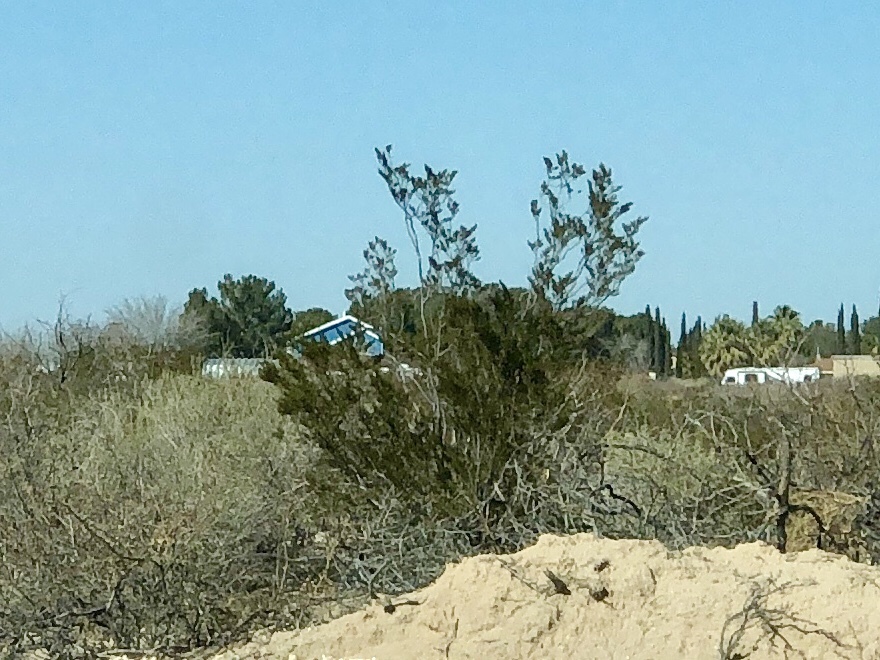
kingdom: Plantae
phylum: Tracheophyta
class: Magnoliopsida
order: Zygophyllales
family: Zygophyllaceae
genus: Larrea
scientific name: Larrea tridentata
